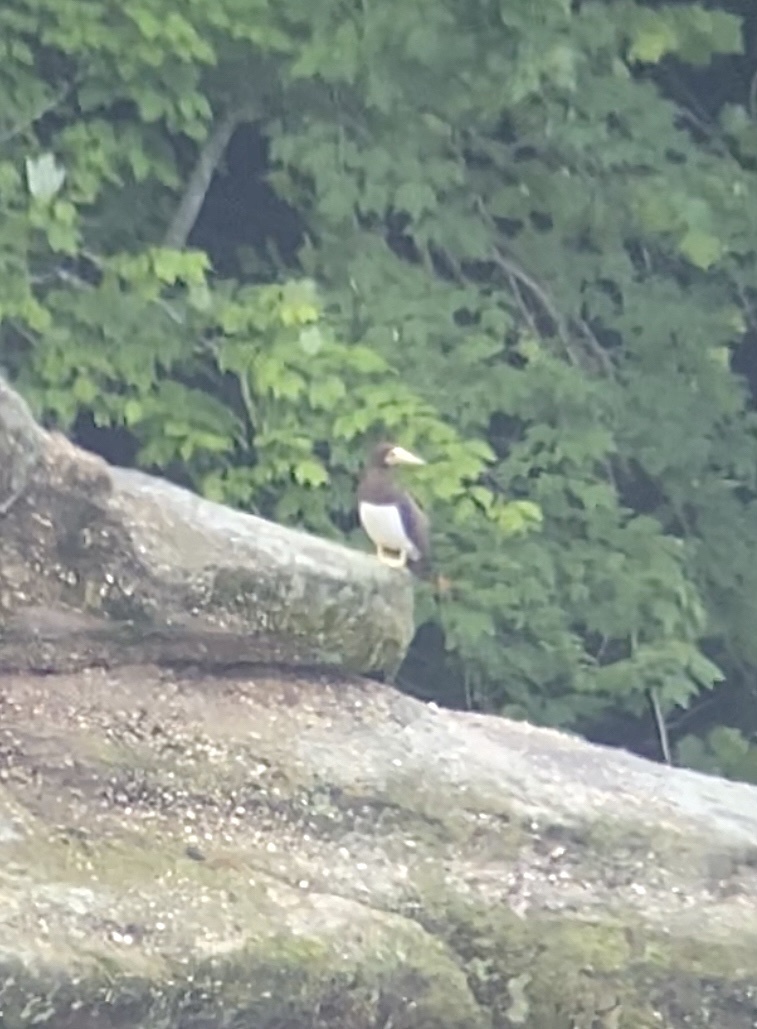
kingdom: Animalia
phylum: Chordata
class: Aves
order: Suliformes
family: Sulidae
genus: Sula
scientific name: Sula leucogaster
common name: Brown booby
